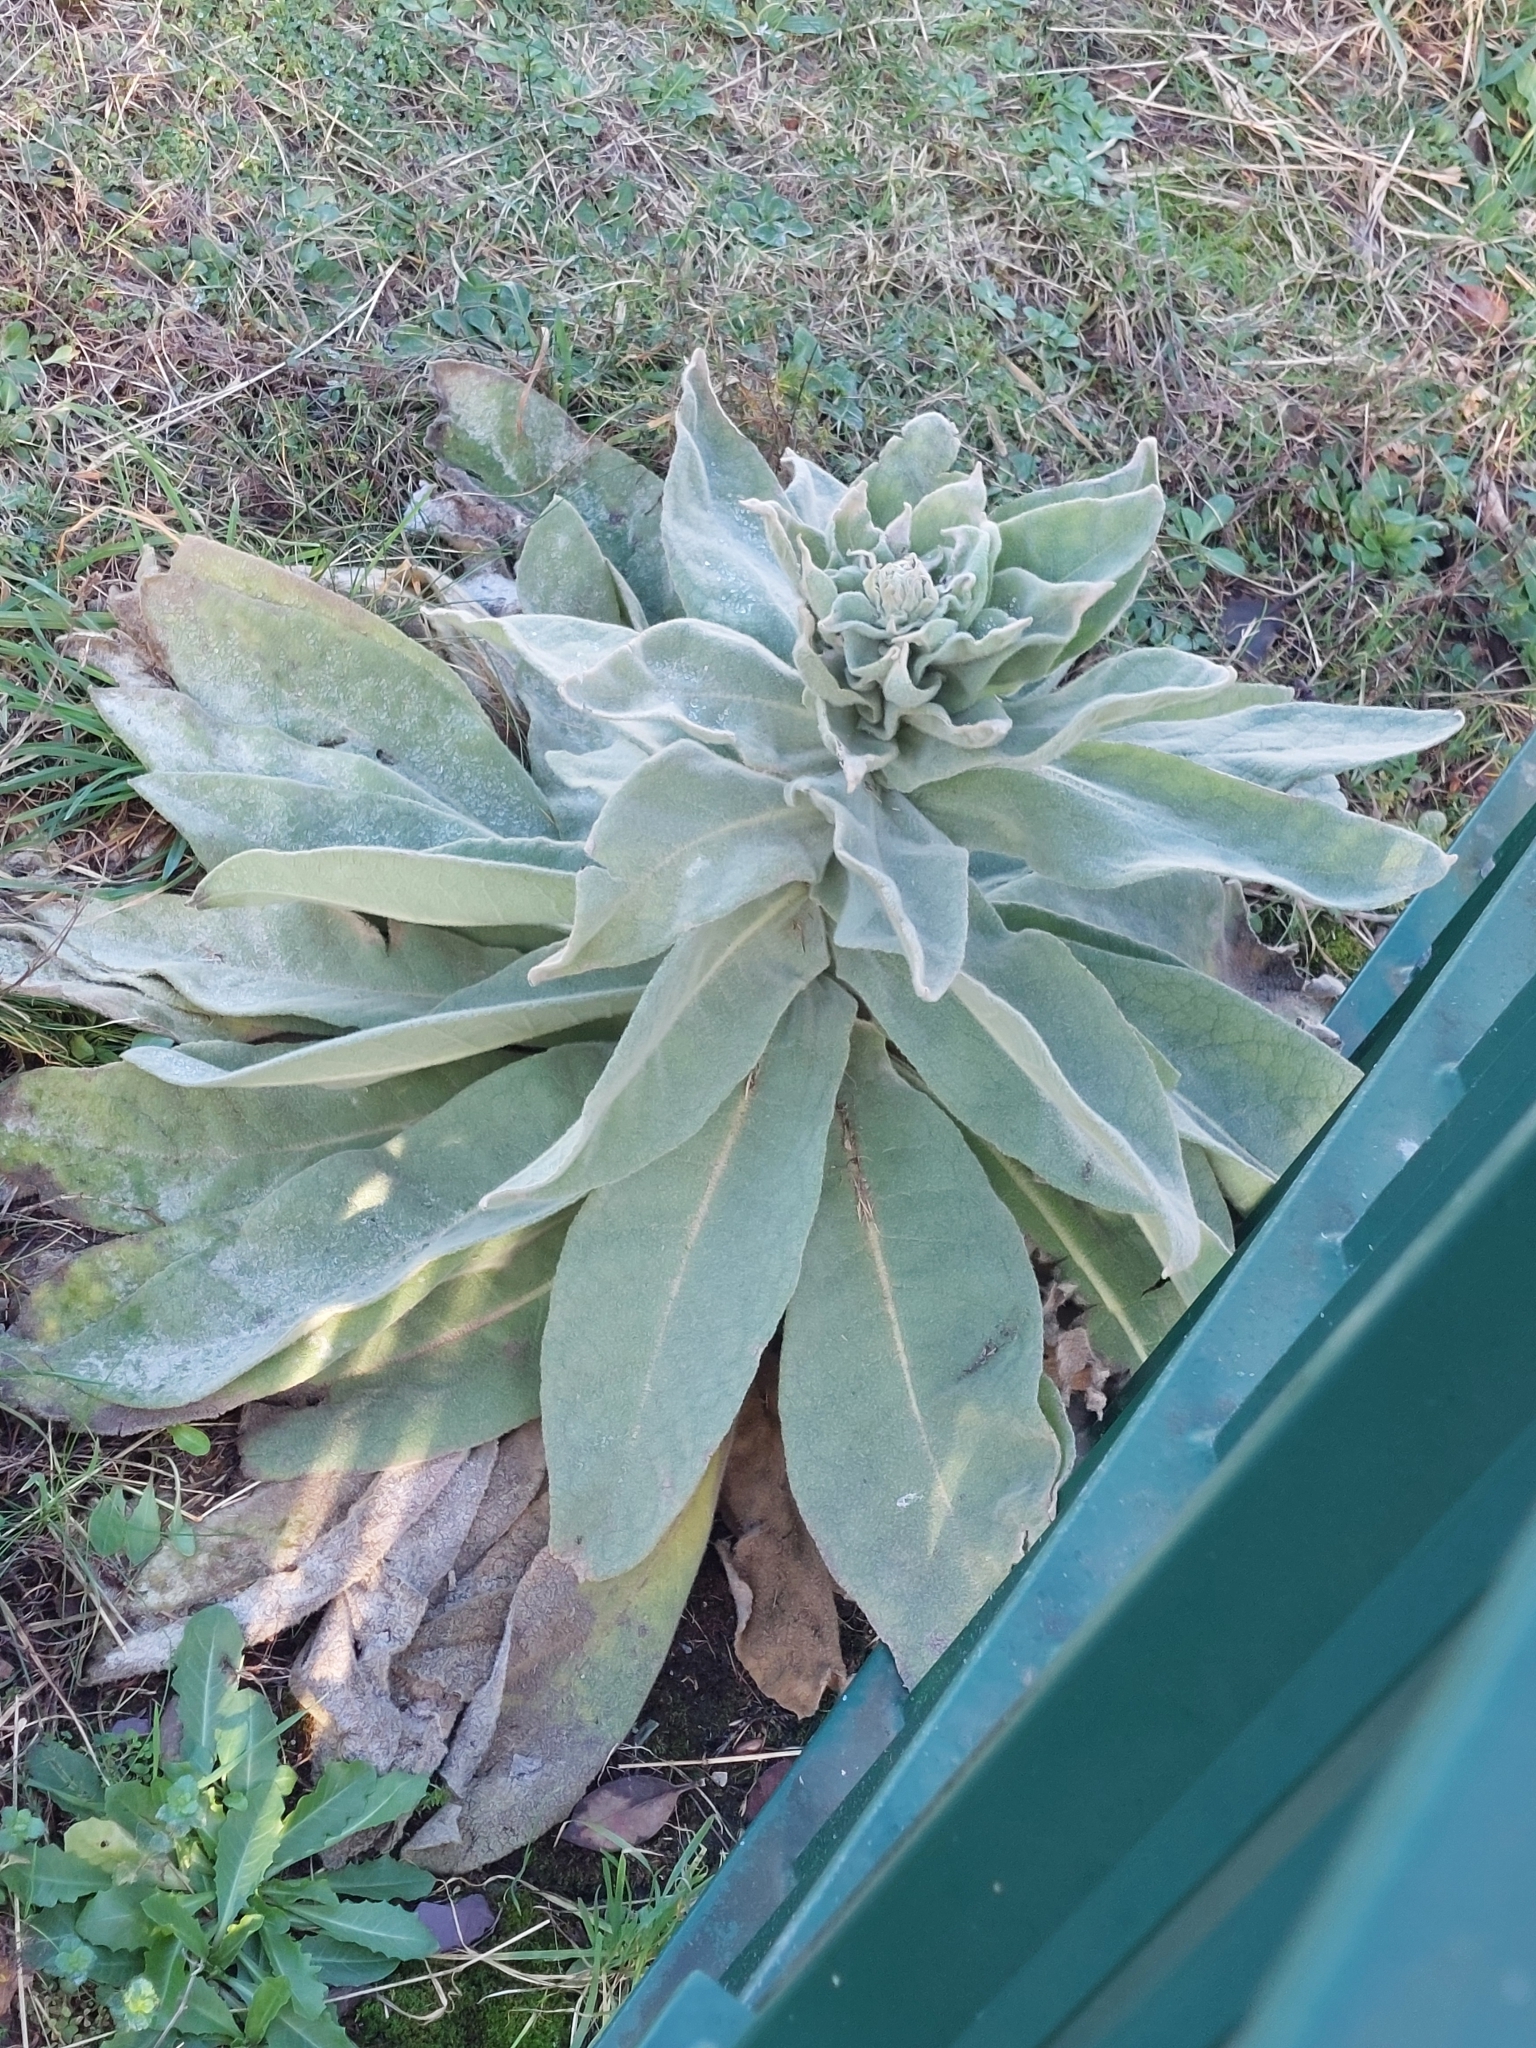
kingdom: Plantae
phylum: Tracheophyta
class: Magnoliopsida
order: Lamiales
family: Scrophulariaceae
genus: Verbascum
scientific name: Verbascum pulverulentum
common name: Broad-leaf mullein
